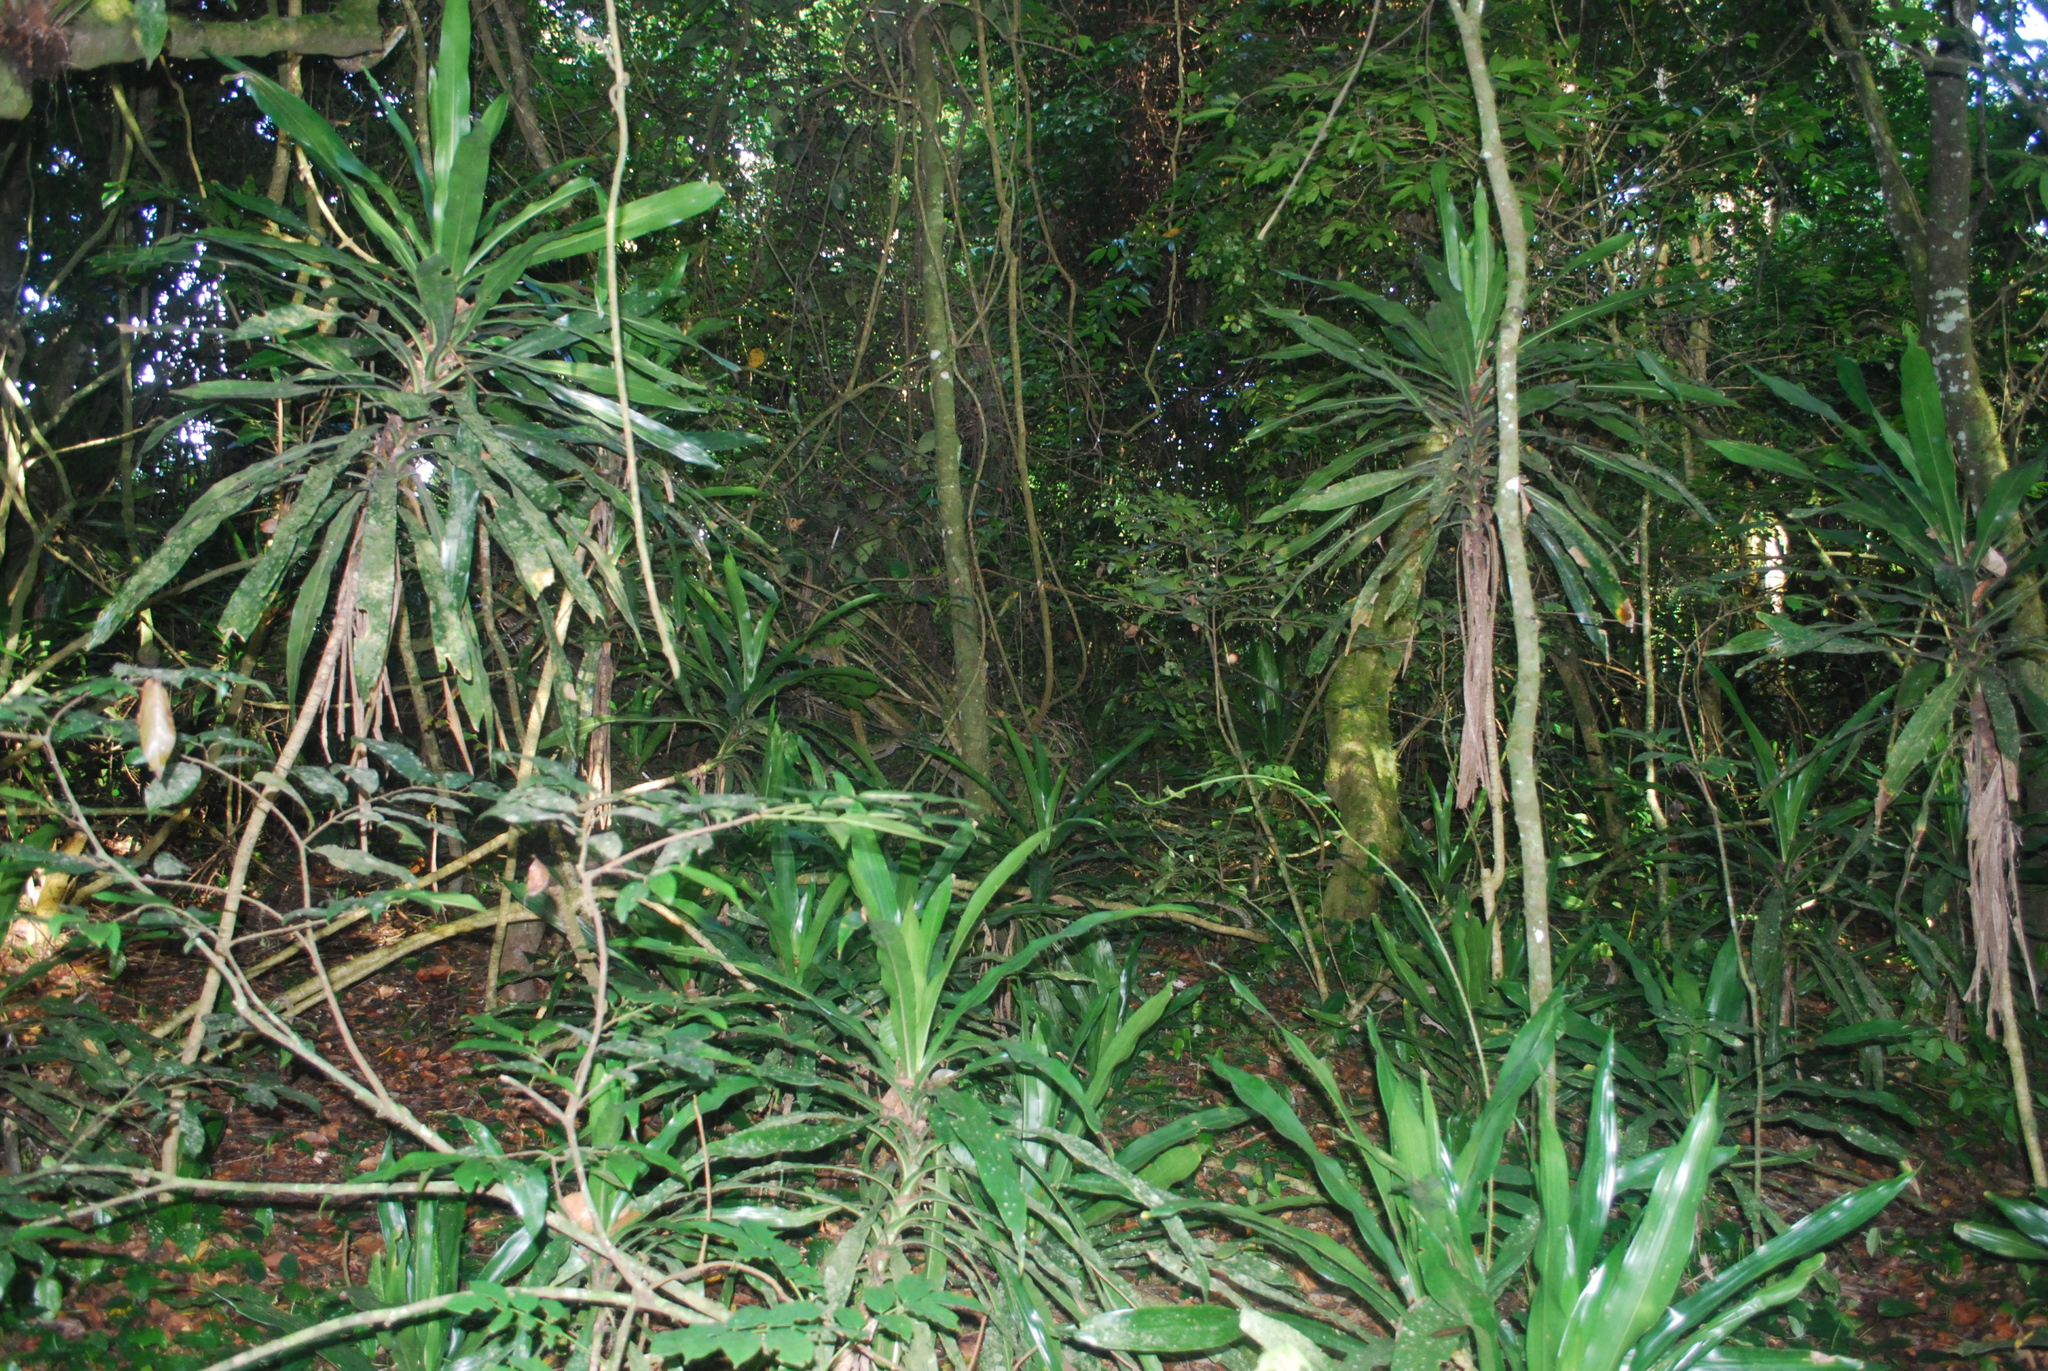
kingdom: Plantae
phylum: Tracheophyta
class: Liliopsida
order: Asparagales
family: Asparagaceae
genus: Dracaena
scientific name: Dracaena fragrans
